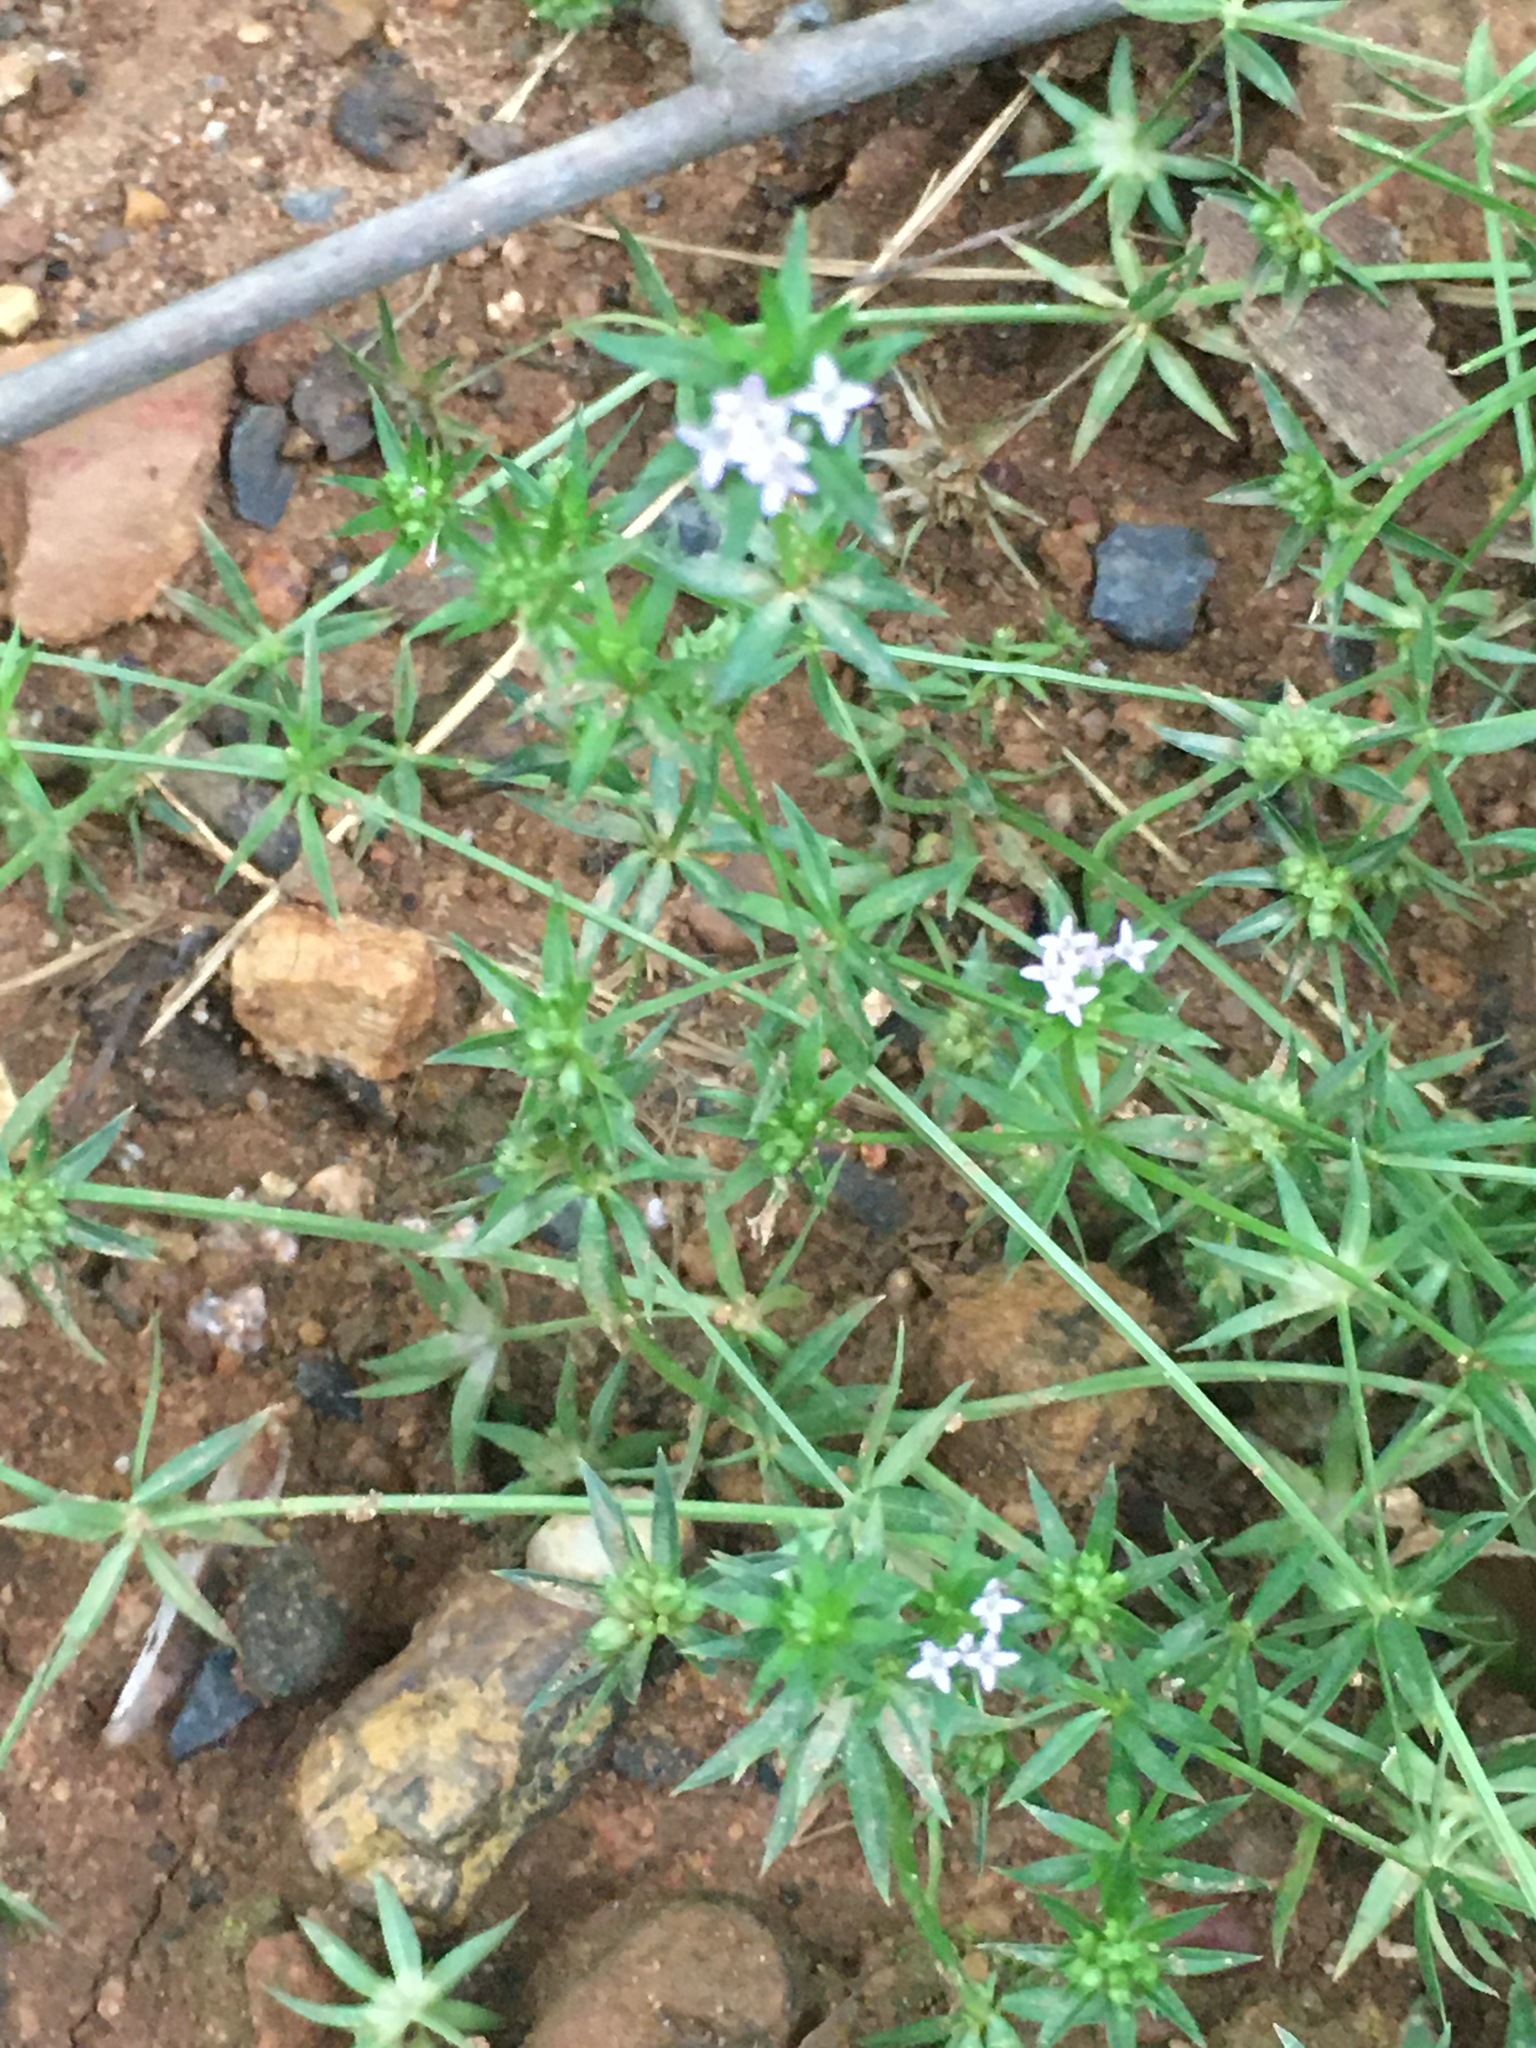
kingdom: Plantae
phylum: Tracheophyta
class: Magnoliopsida
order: Gentianales
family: Rubiaceae
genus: Sherardia
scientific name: Sherardia arvensis
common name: Field madder
